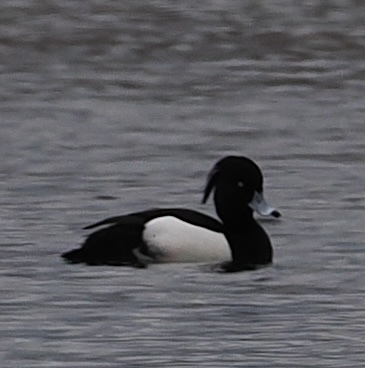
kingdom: Animalia
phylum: Chordata
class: Aves
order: Anseriformes
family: Anatidae
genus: Aythya
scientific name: Aythya fuligula
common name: Tufted duck
